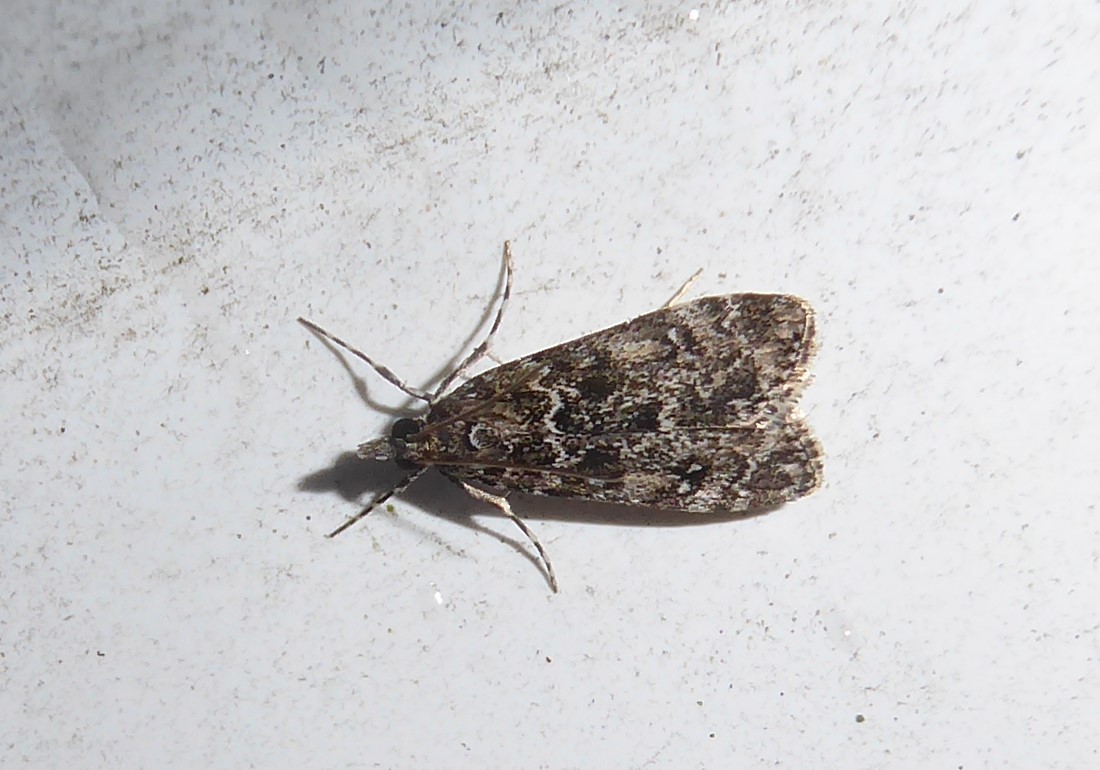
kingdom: Animalia
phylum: Arthropoda
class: Insecta
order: Lepidoptera
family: Crambidae
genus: Eudonia
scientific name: Eudonia philerga
